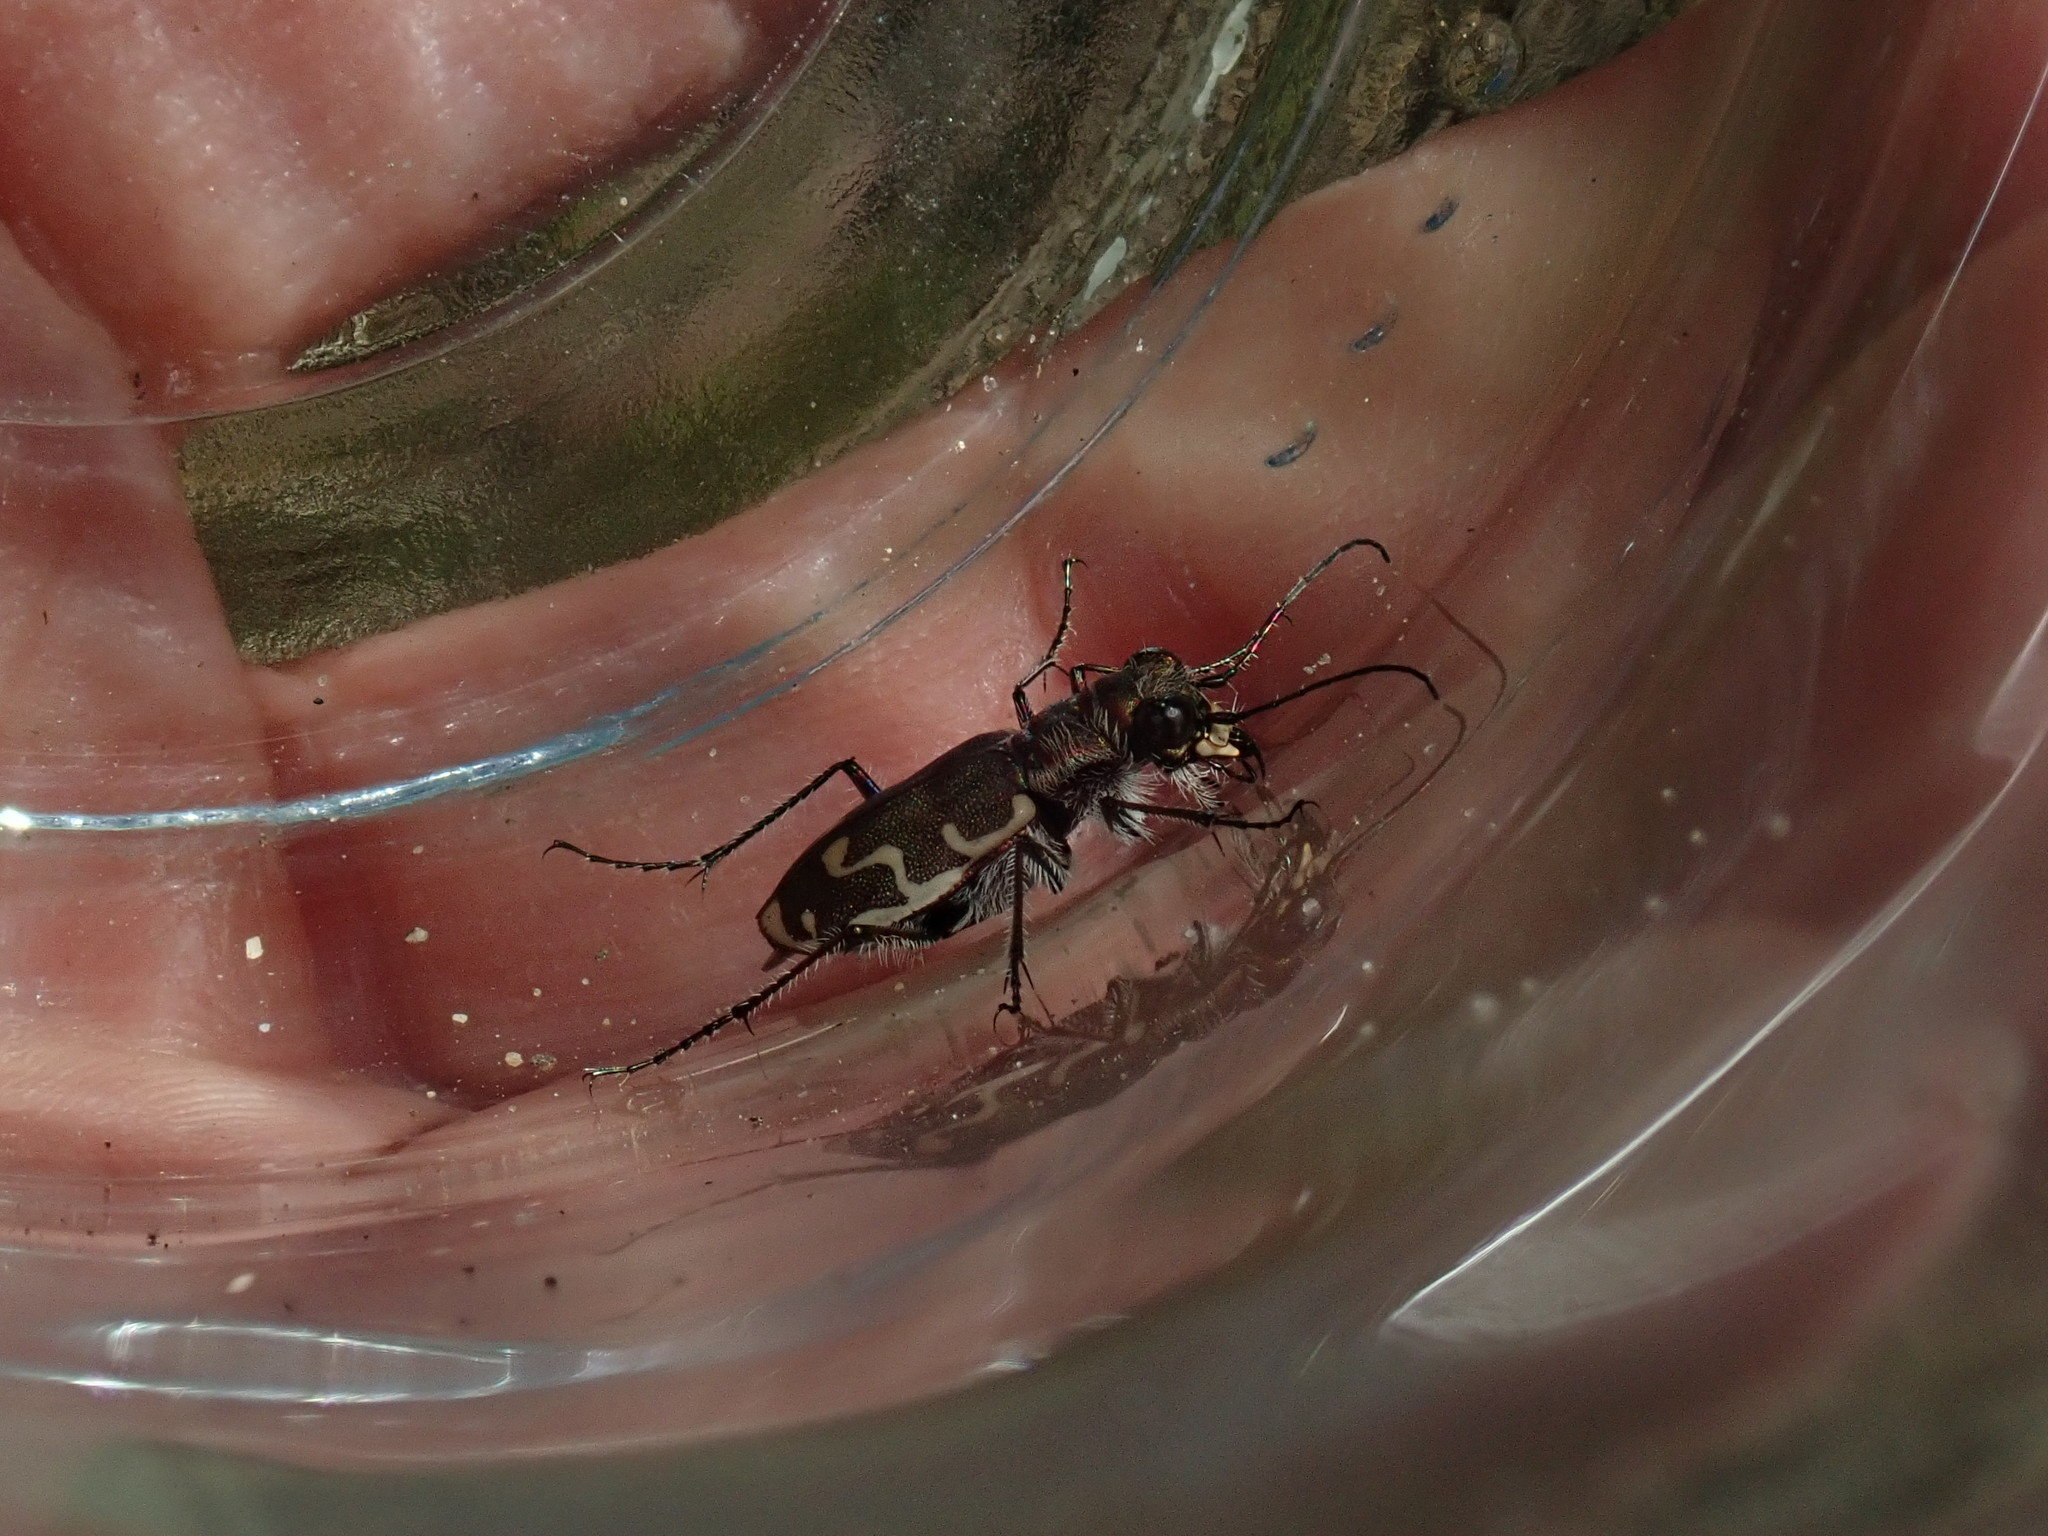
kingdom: Animalia
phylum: Arthropoda
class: Insecta
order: Coleoptera
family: Carabidae
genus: Cicindela
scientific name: Cicindela repanda
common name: Bronzed tiger beetle
